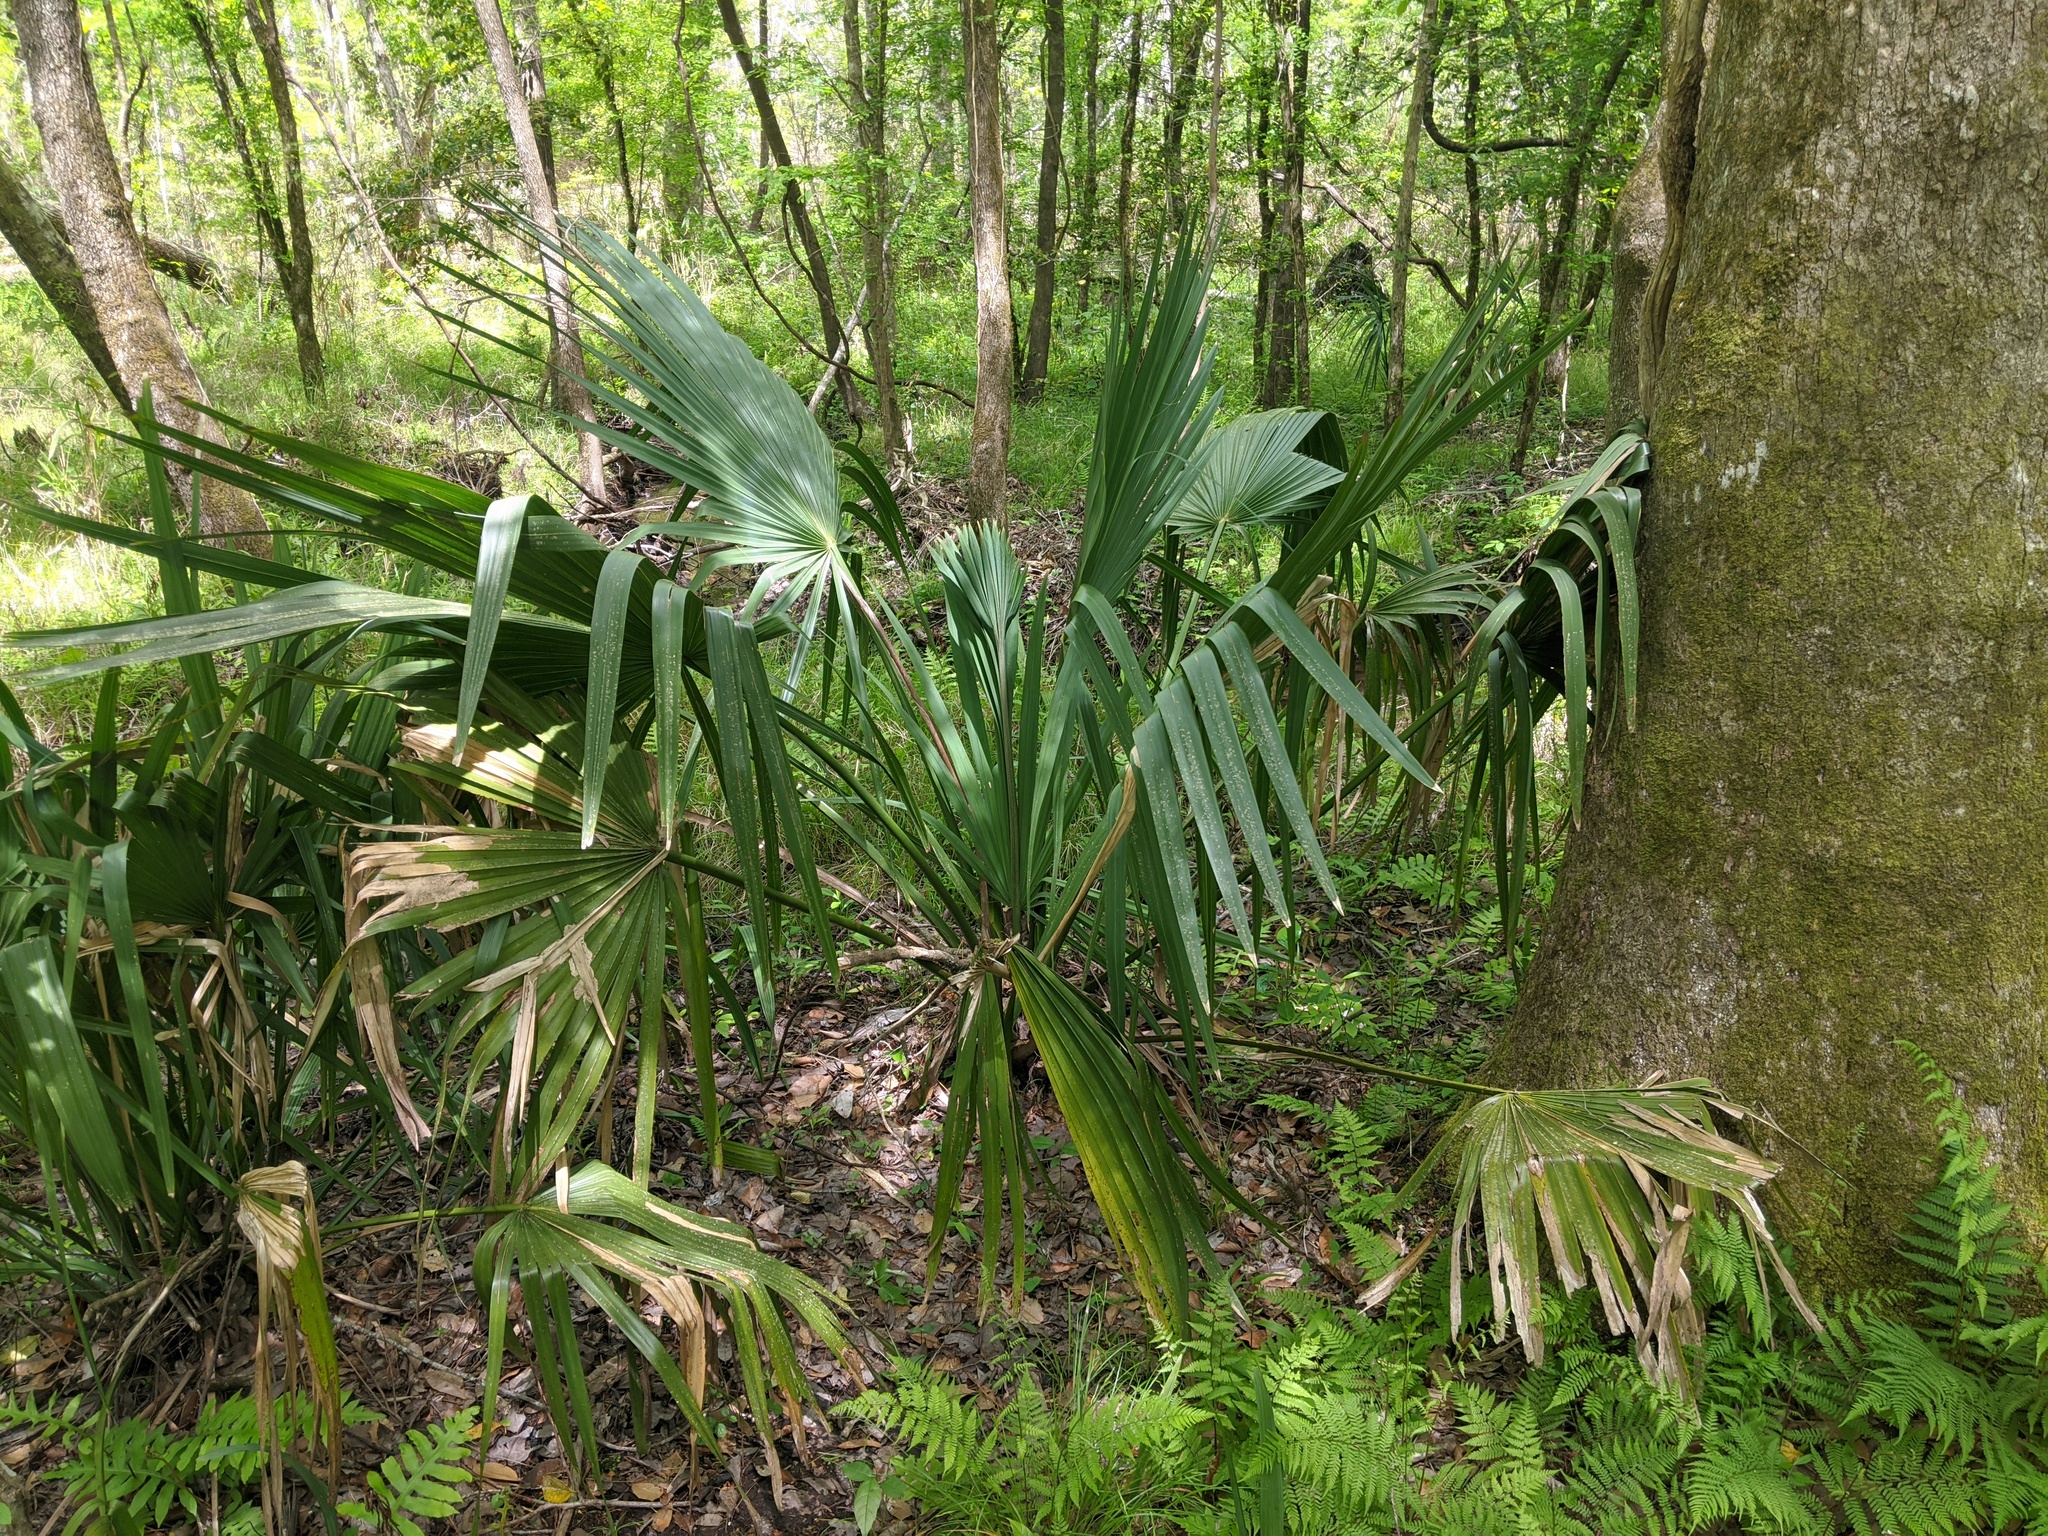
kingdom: Plantae
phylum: Tracheophyta
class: Liliopsida
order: Arecales
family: Arecaceae
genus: Sabal
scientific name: Sabal minor
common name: Dwarf palmetto
